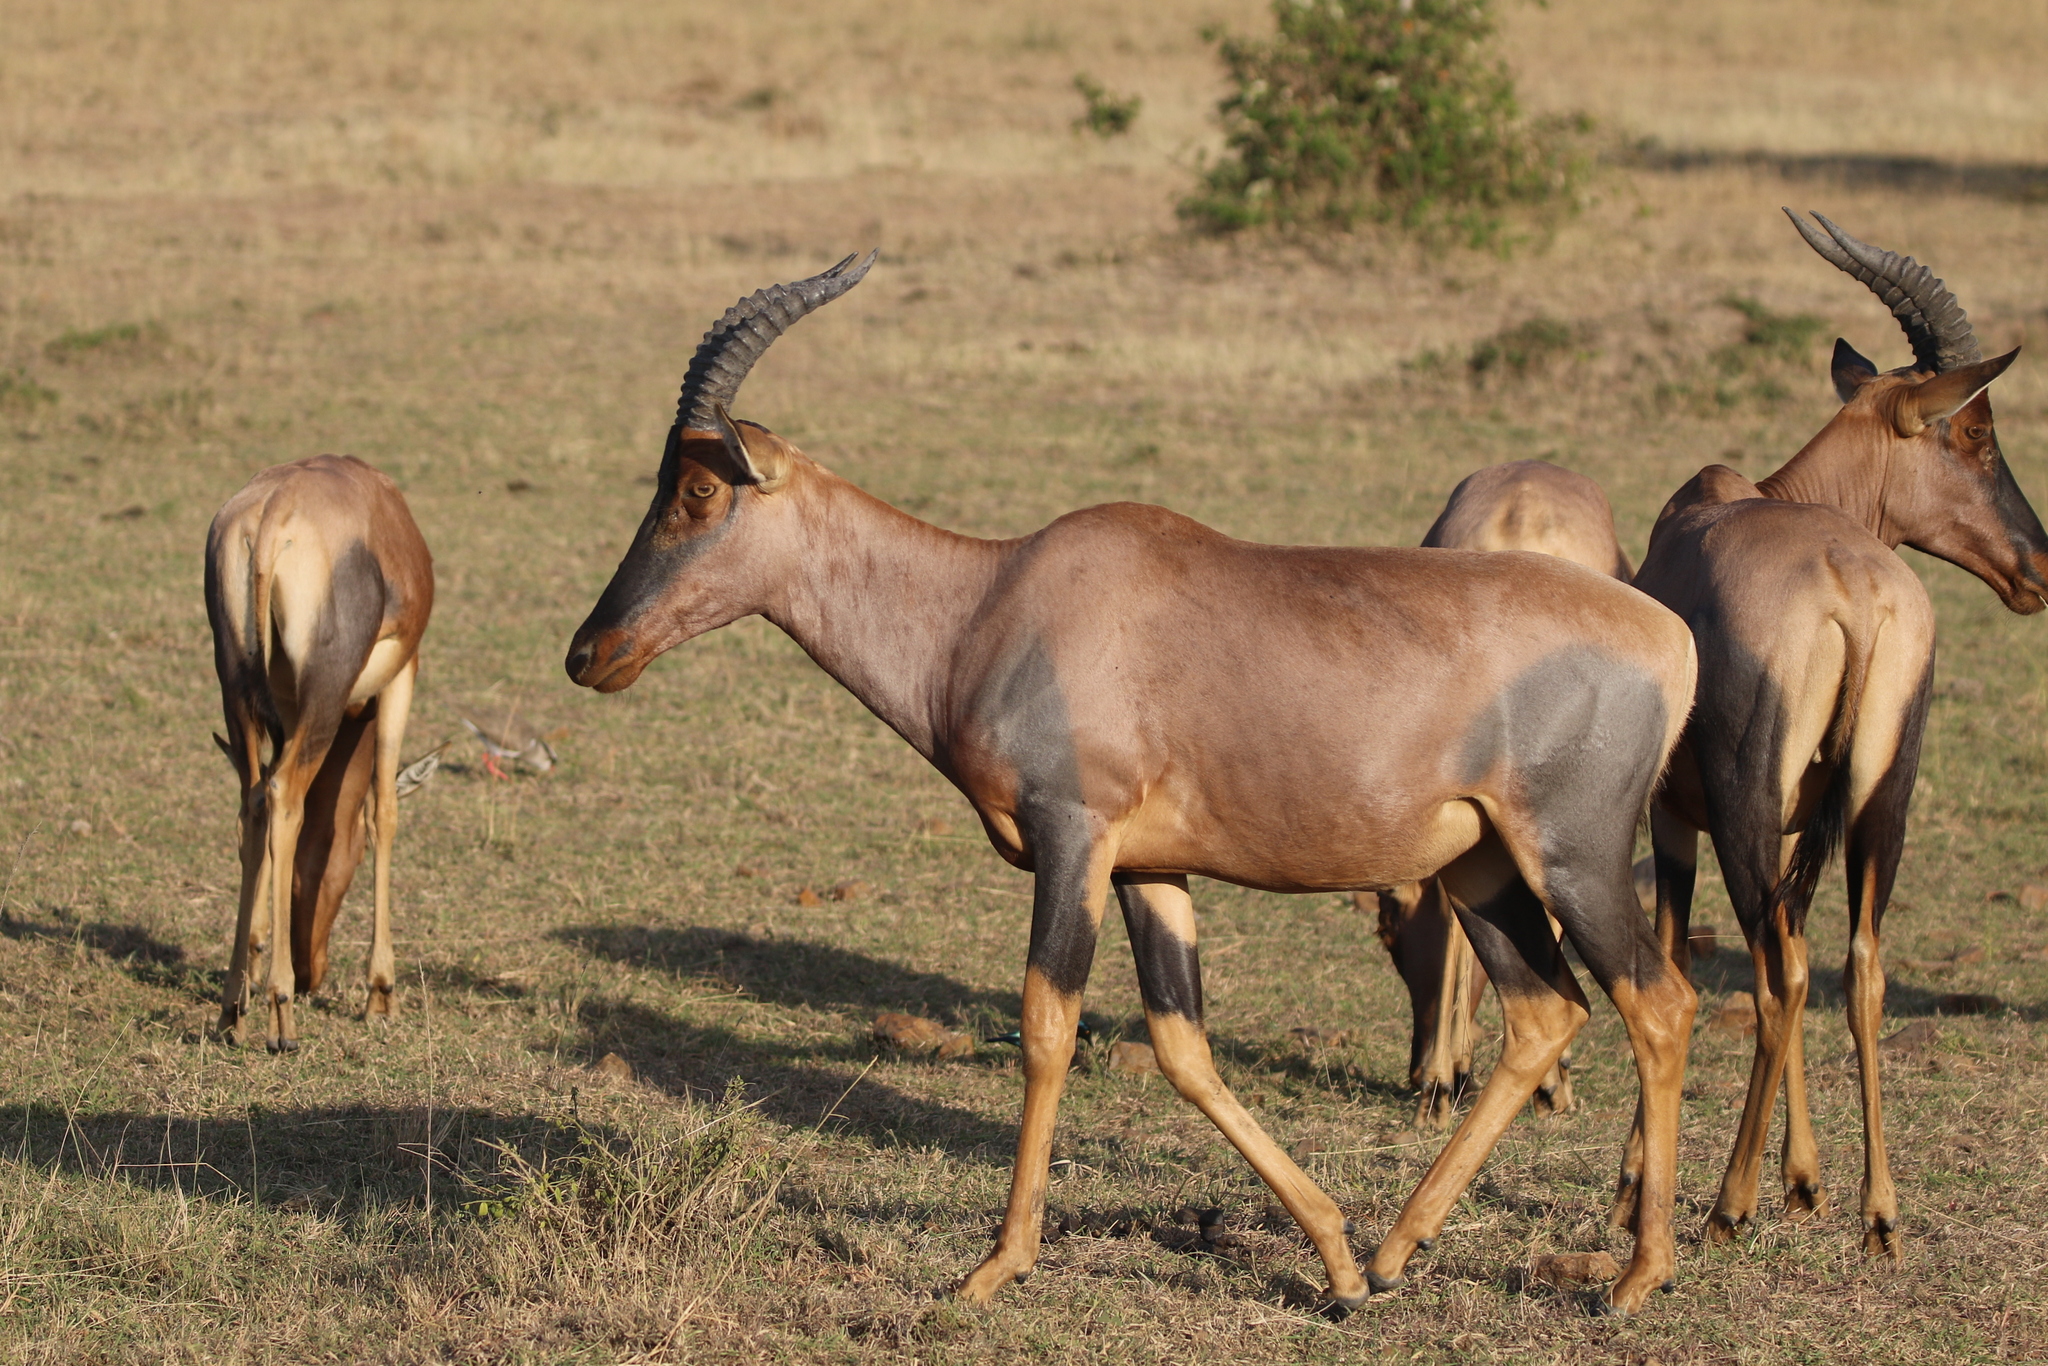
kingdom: Animalia
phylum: Chordata
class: Mammalia
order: Artiodactyla
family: Bovidae
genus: Damaliscus
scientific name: Damaliscus korrigum
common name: Topi
